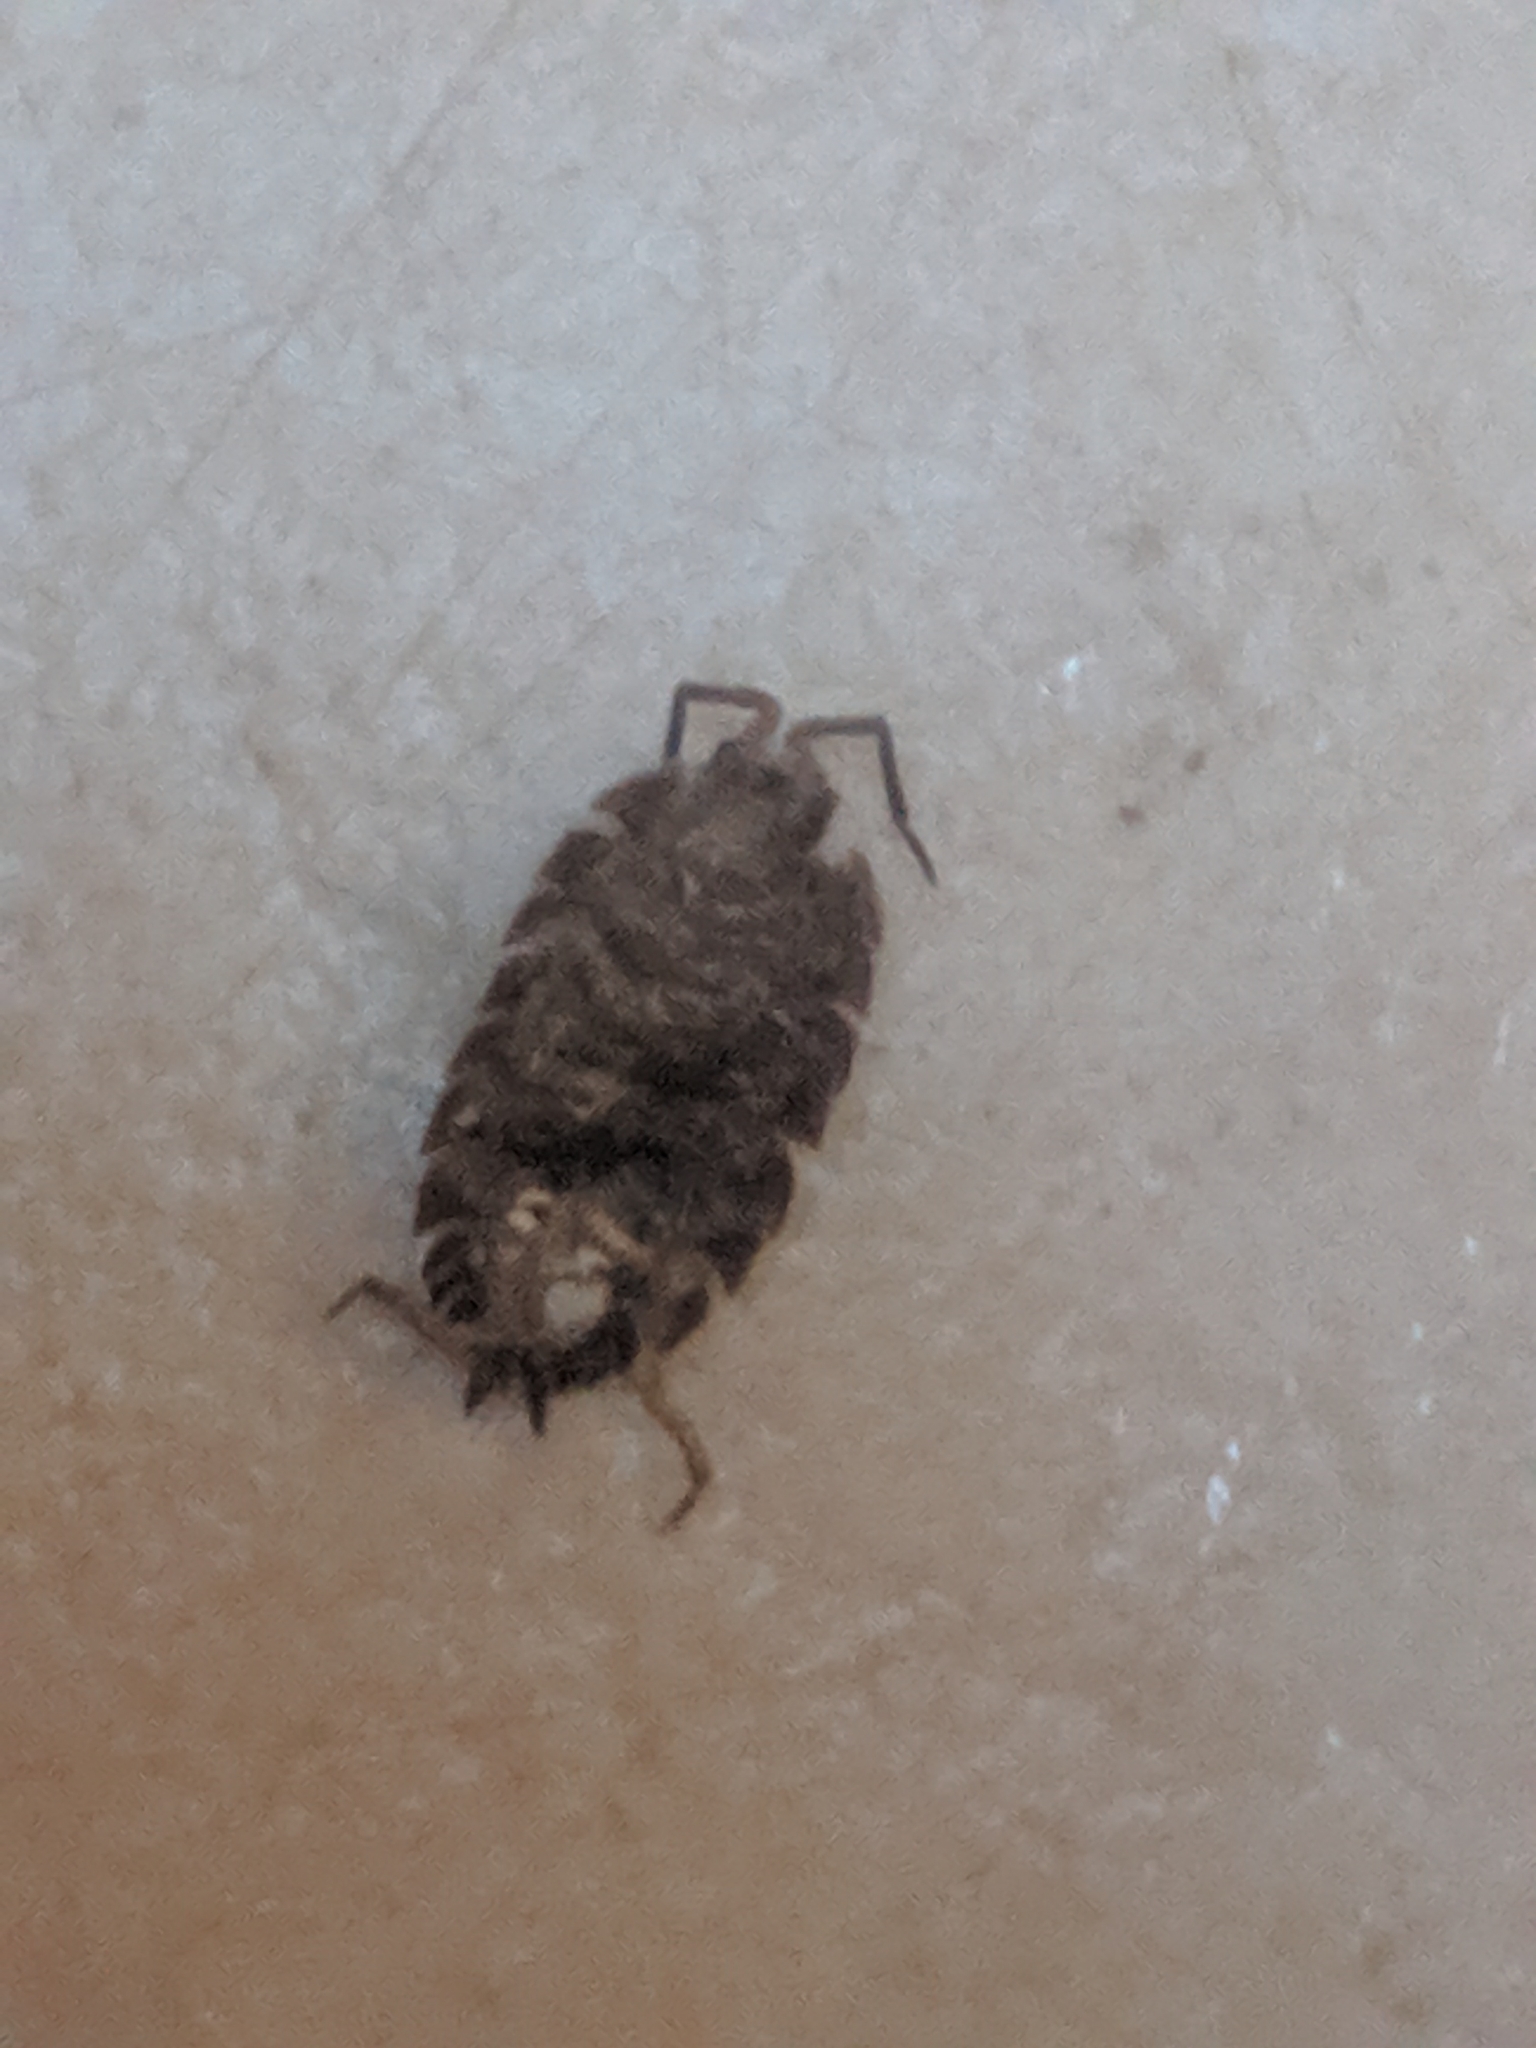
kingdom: Animalia
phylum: Arthropoda
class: Malacostraca
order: Isopoda
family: Porcellionidae
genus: Porcellio
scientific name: Porcellio scaber
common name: Common rough woodlouse
